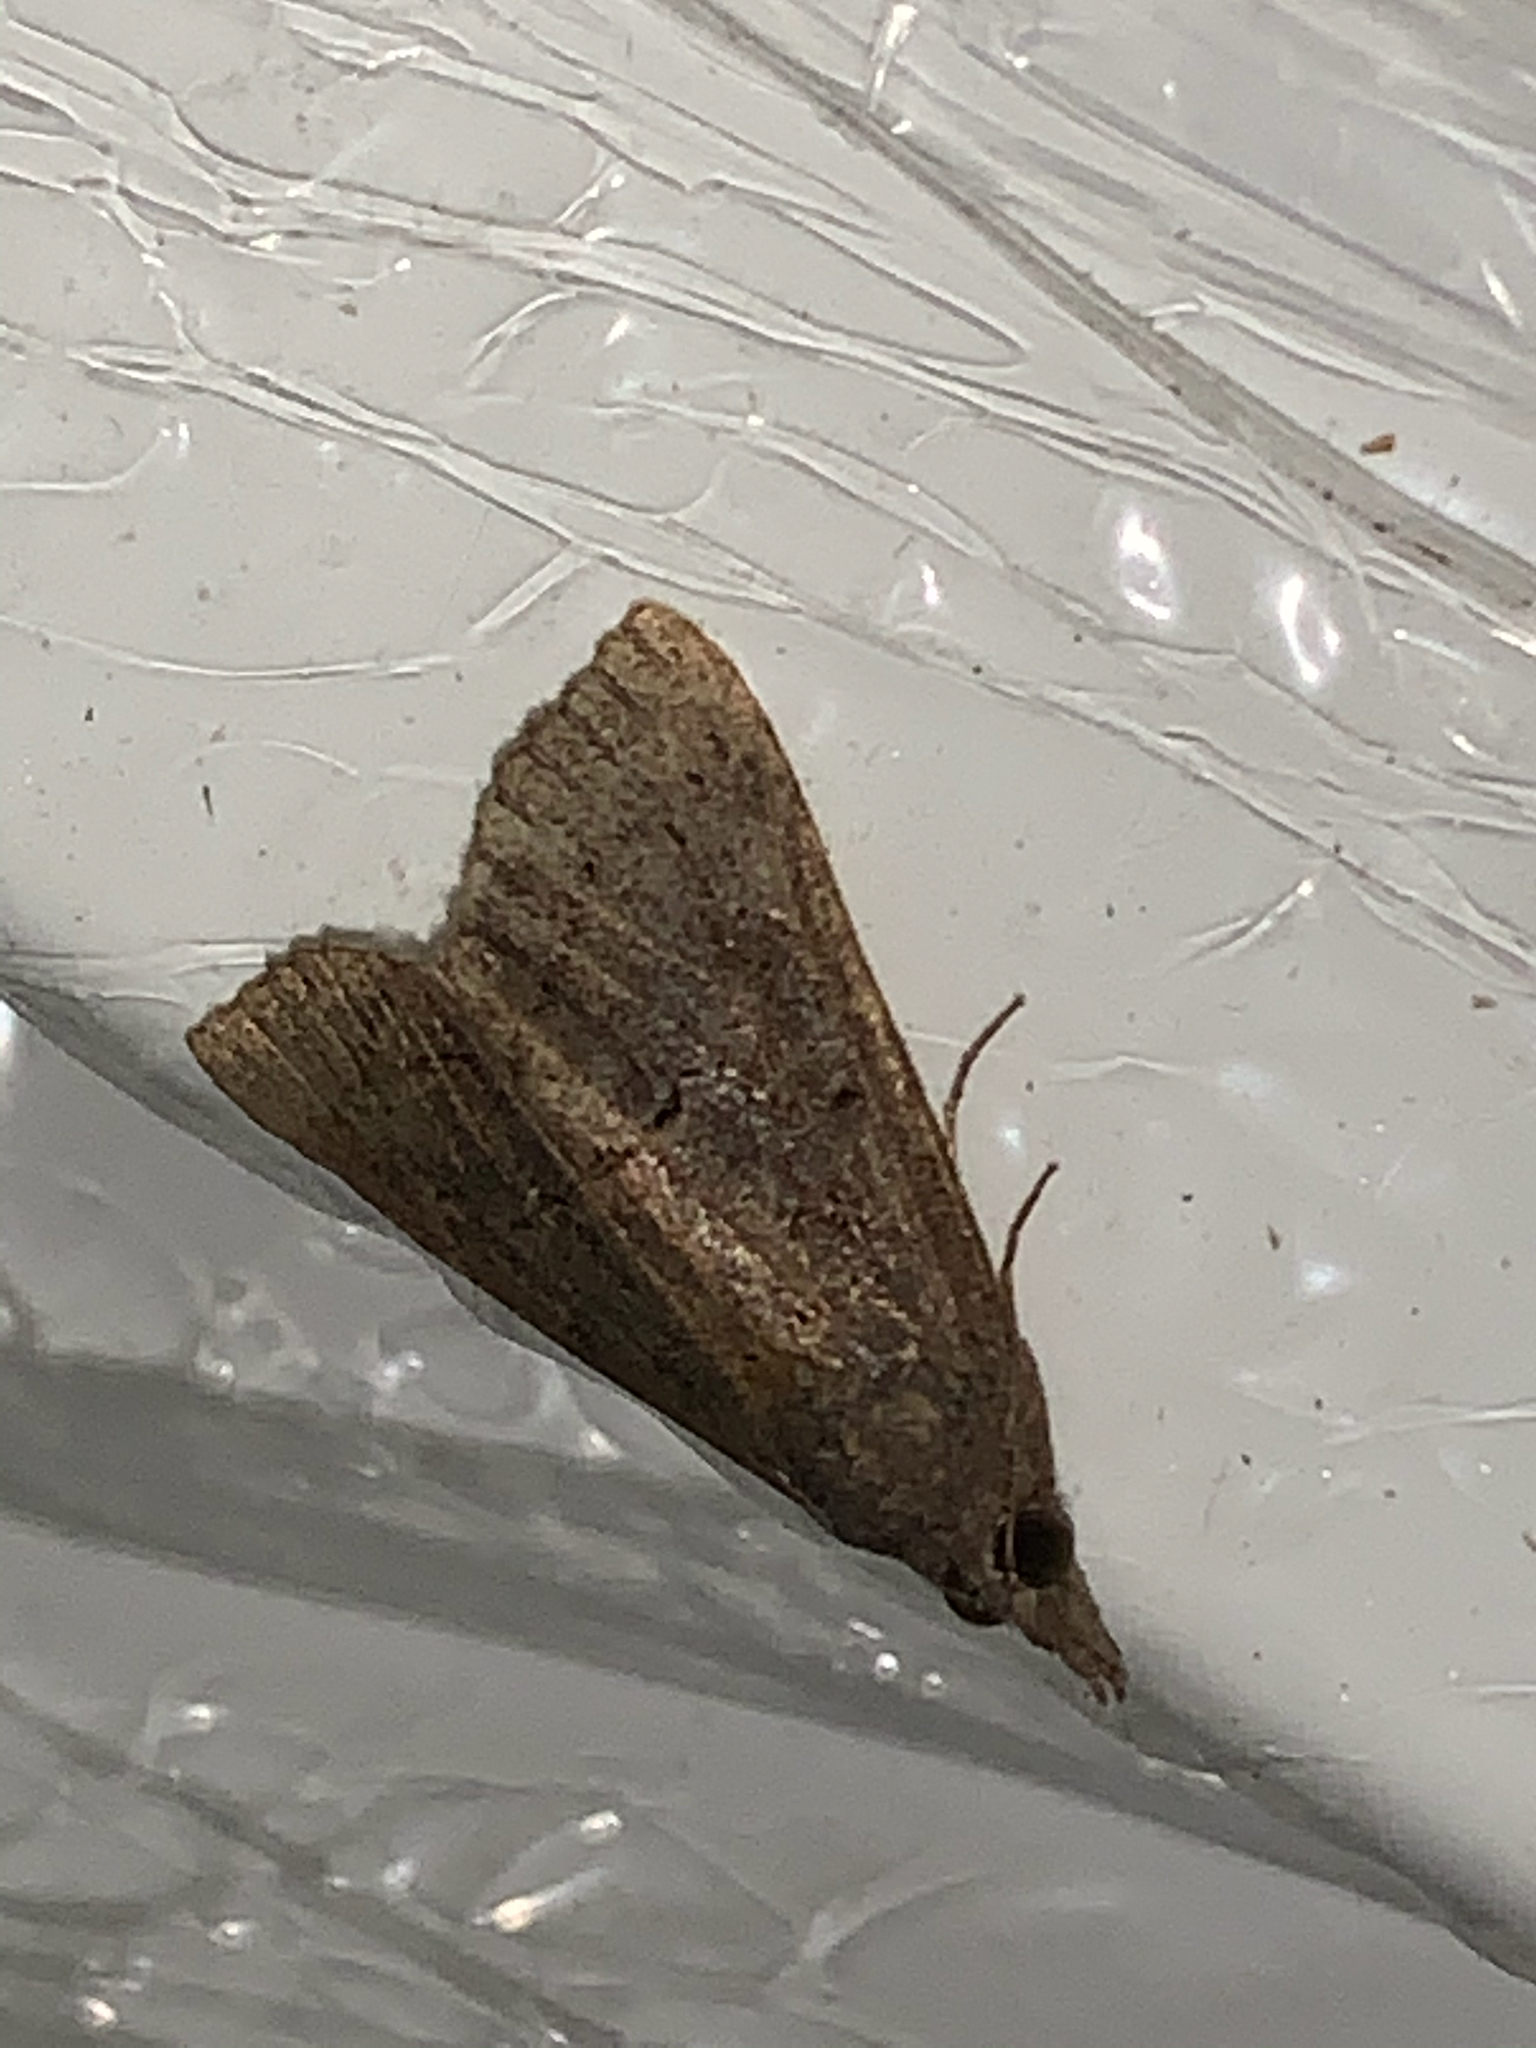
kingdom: Animalia
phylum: Arthropoda
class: Insecta
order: Lepidoptera
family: Erebidae
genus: Hypena
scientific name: Hypena scabra
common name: Green cloverworm
